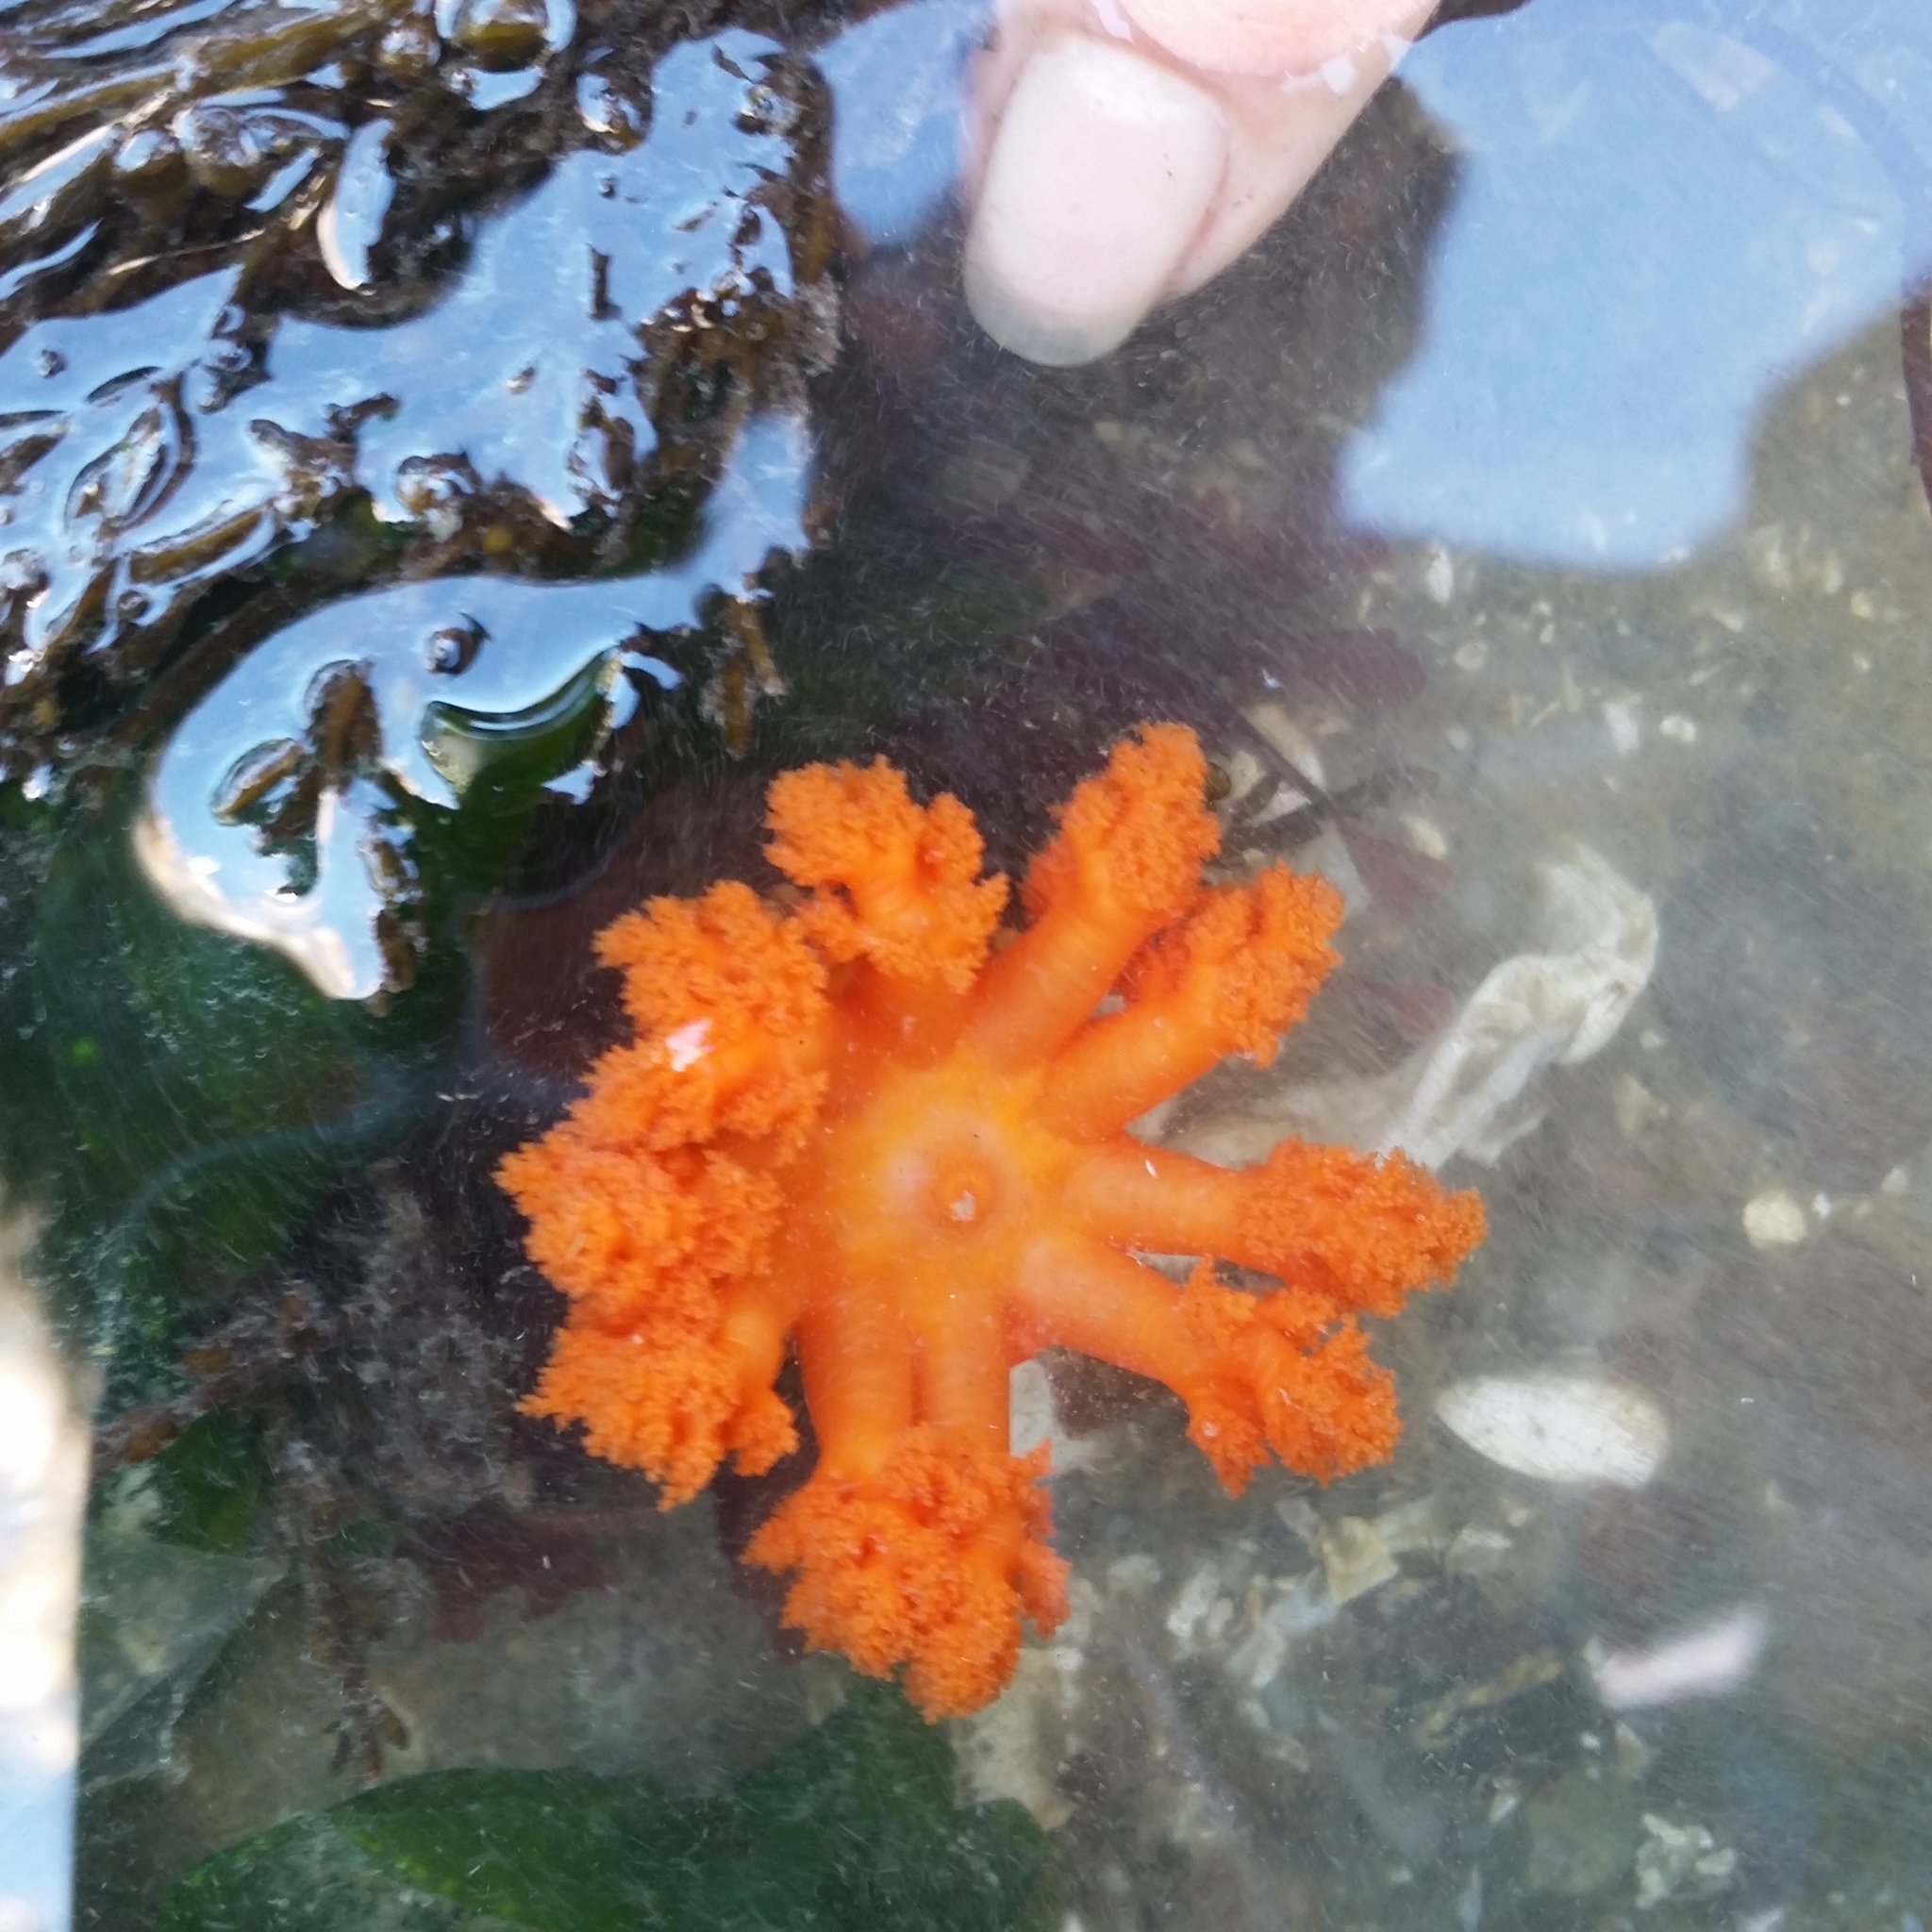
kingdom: Animalia
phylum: Echinodermata
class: Holothuroidea
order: Dendrochirotida
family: Cucumariidae
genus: Cucumaria
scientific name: Cucumaria miniata
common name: Orange sea cucumber
